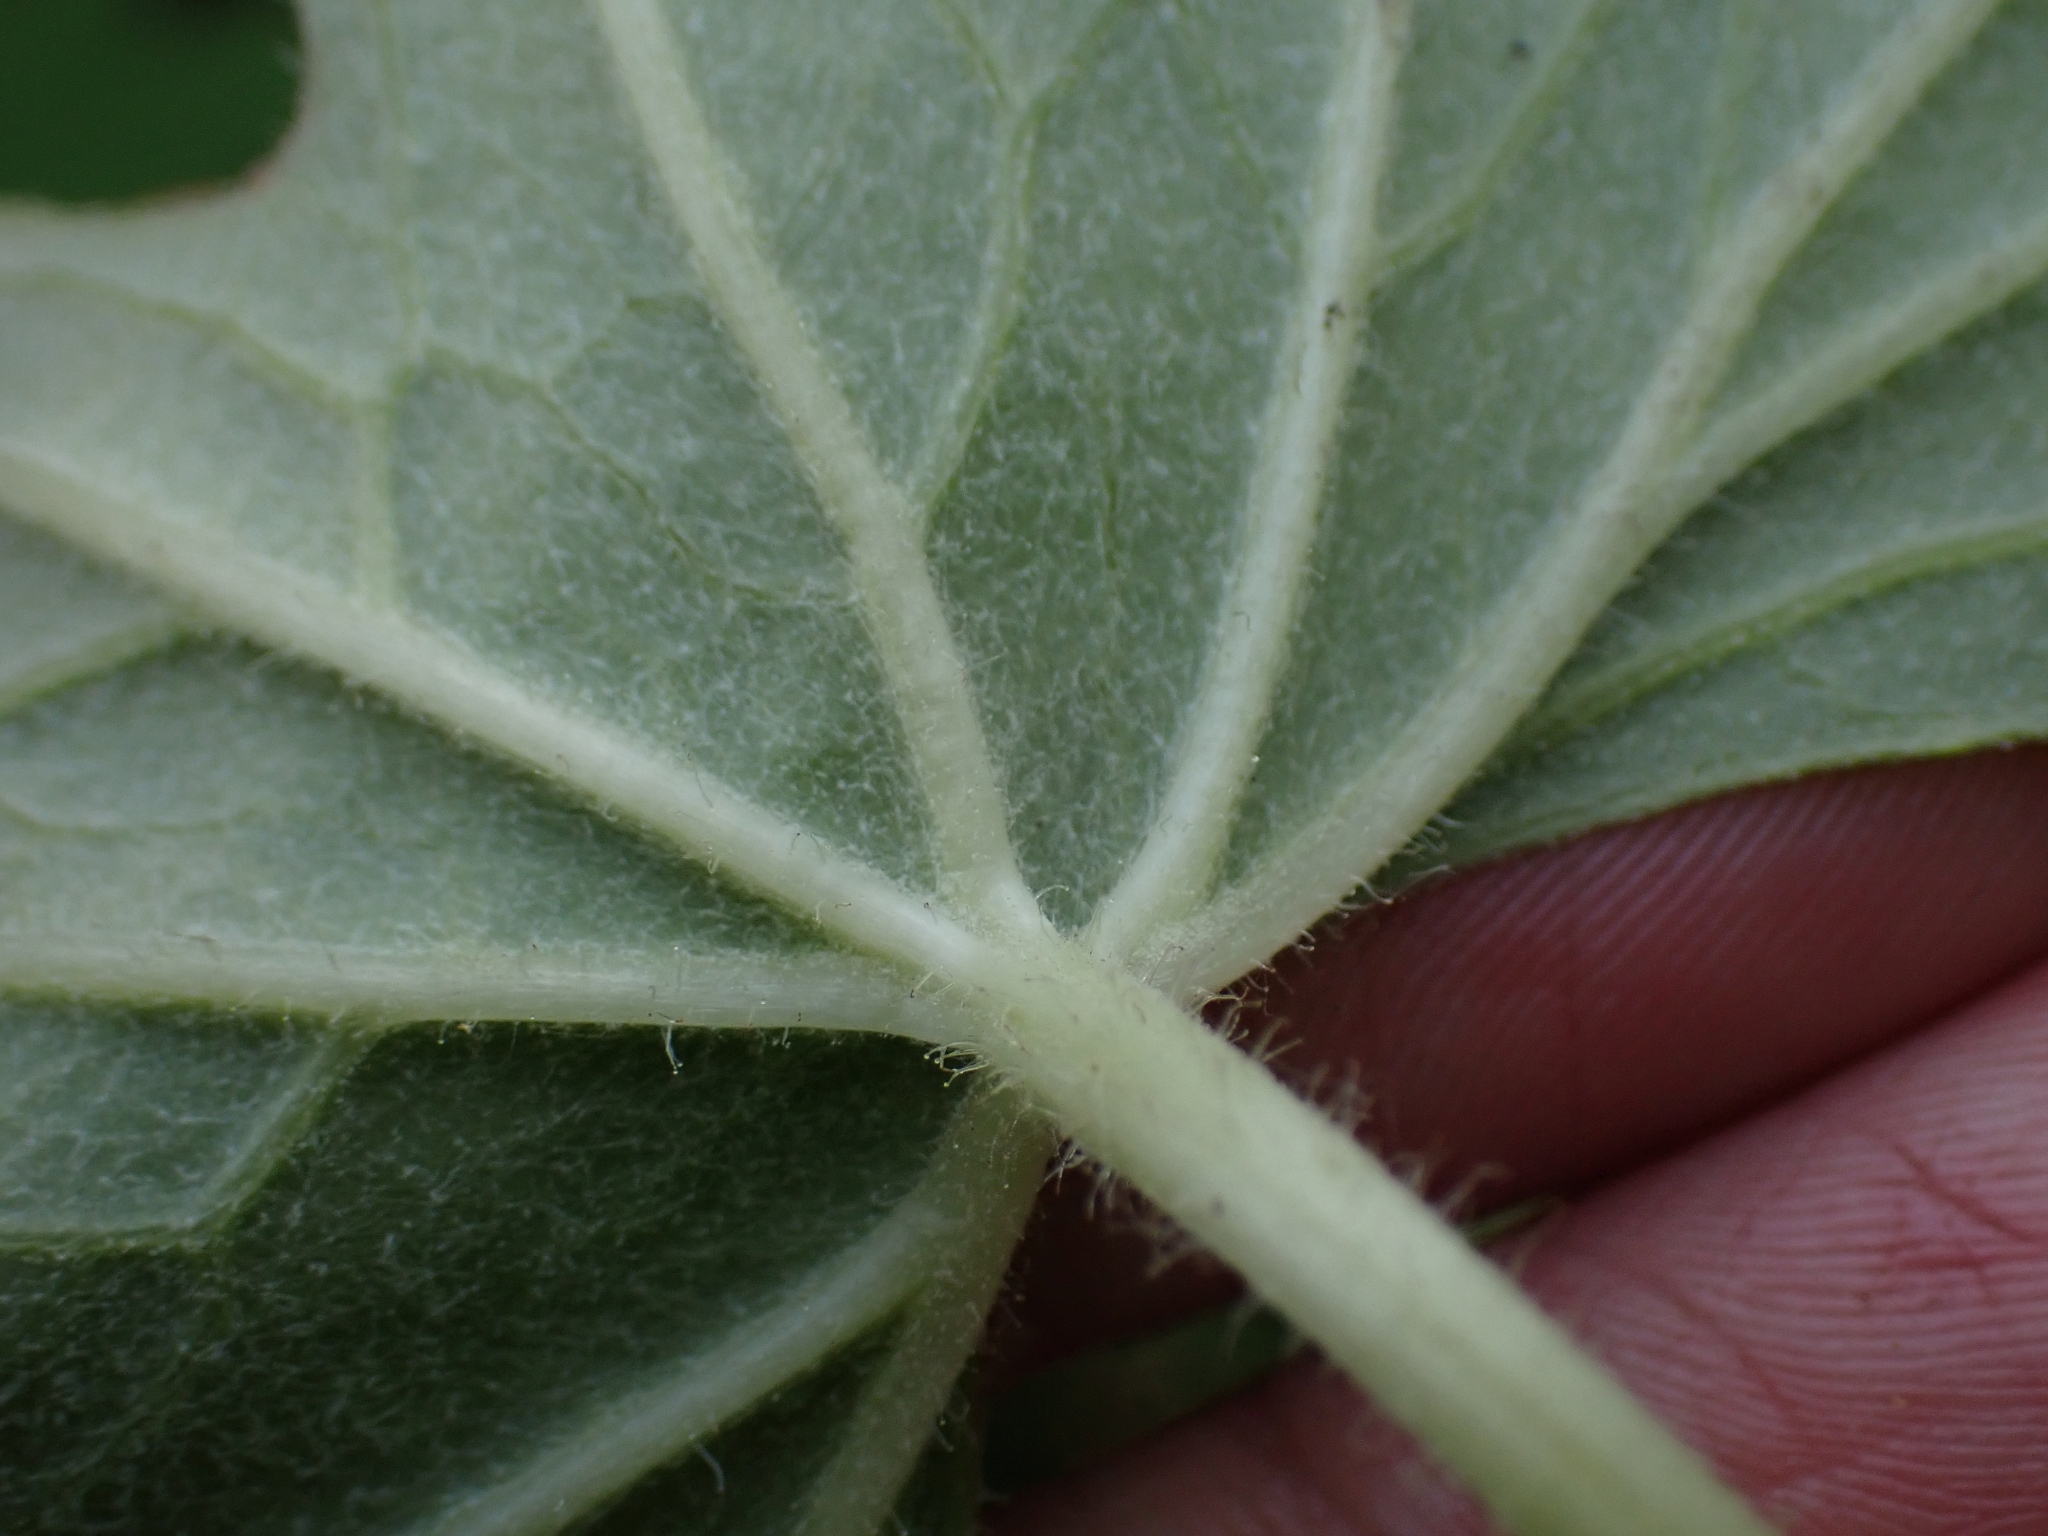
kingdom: Plantae
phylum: Tracheophyta
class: Magnoliopsida
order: Asterales
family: Asteraceae
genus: Petasites
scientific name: Petasites frigidus
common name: Arctic butterbur
